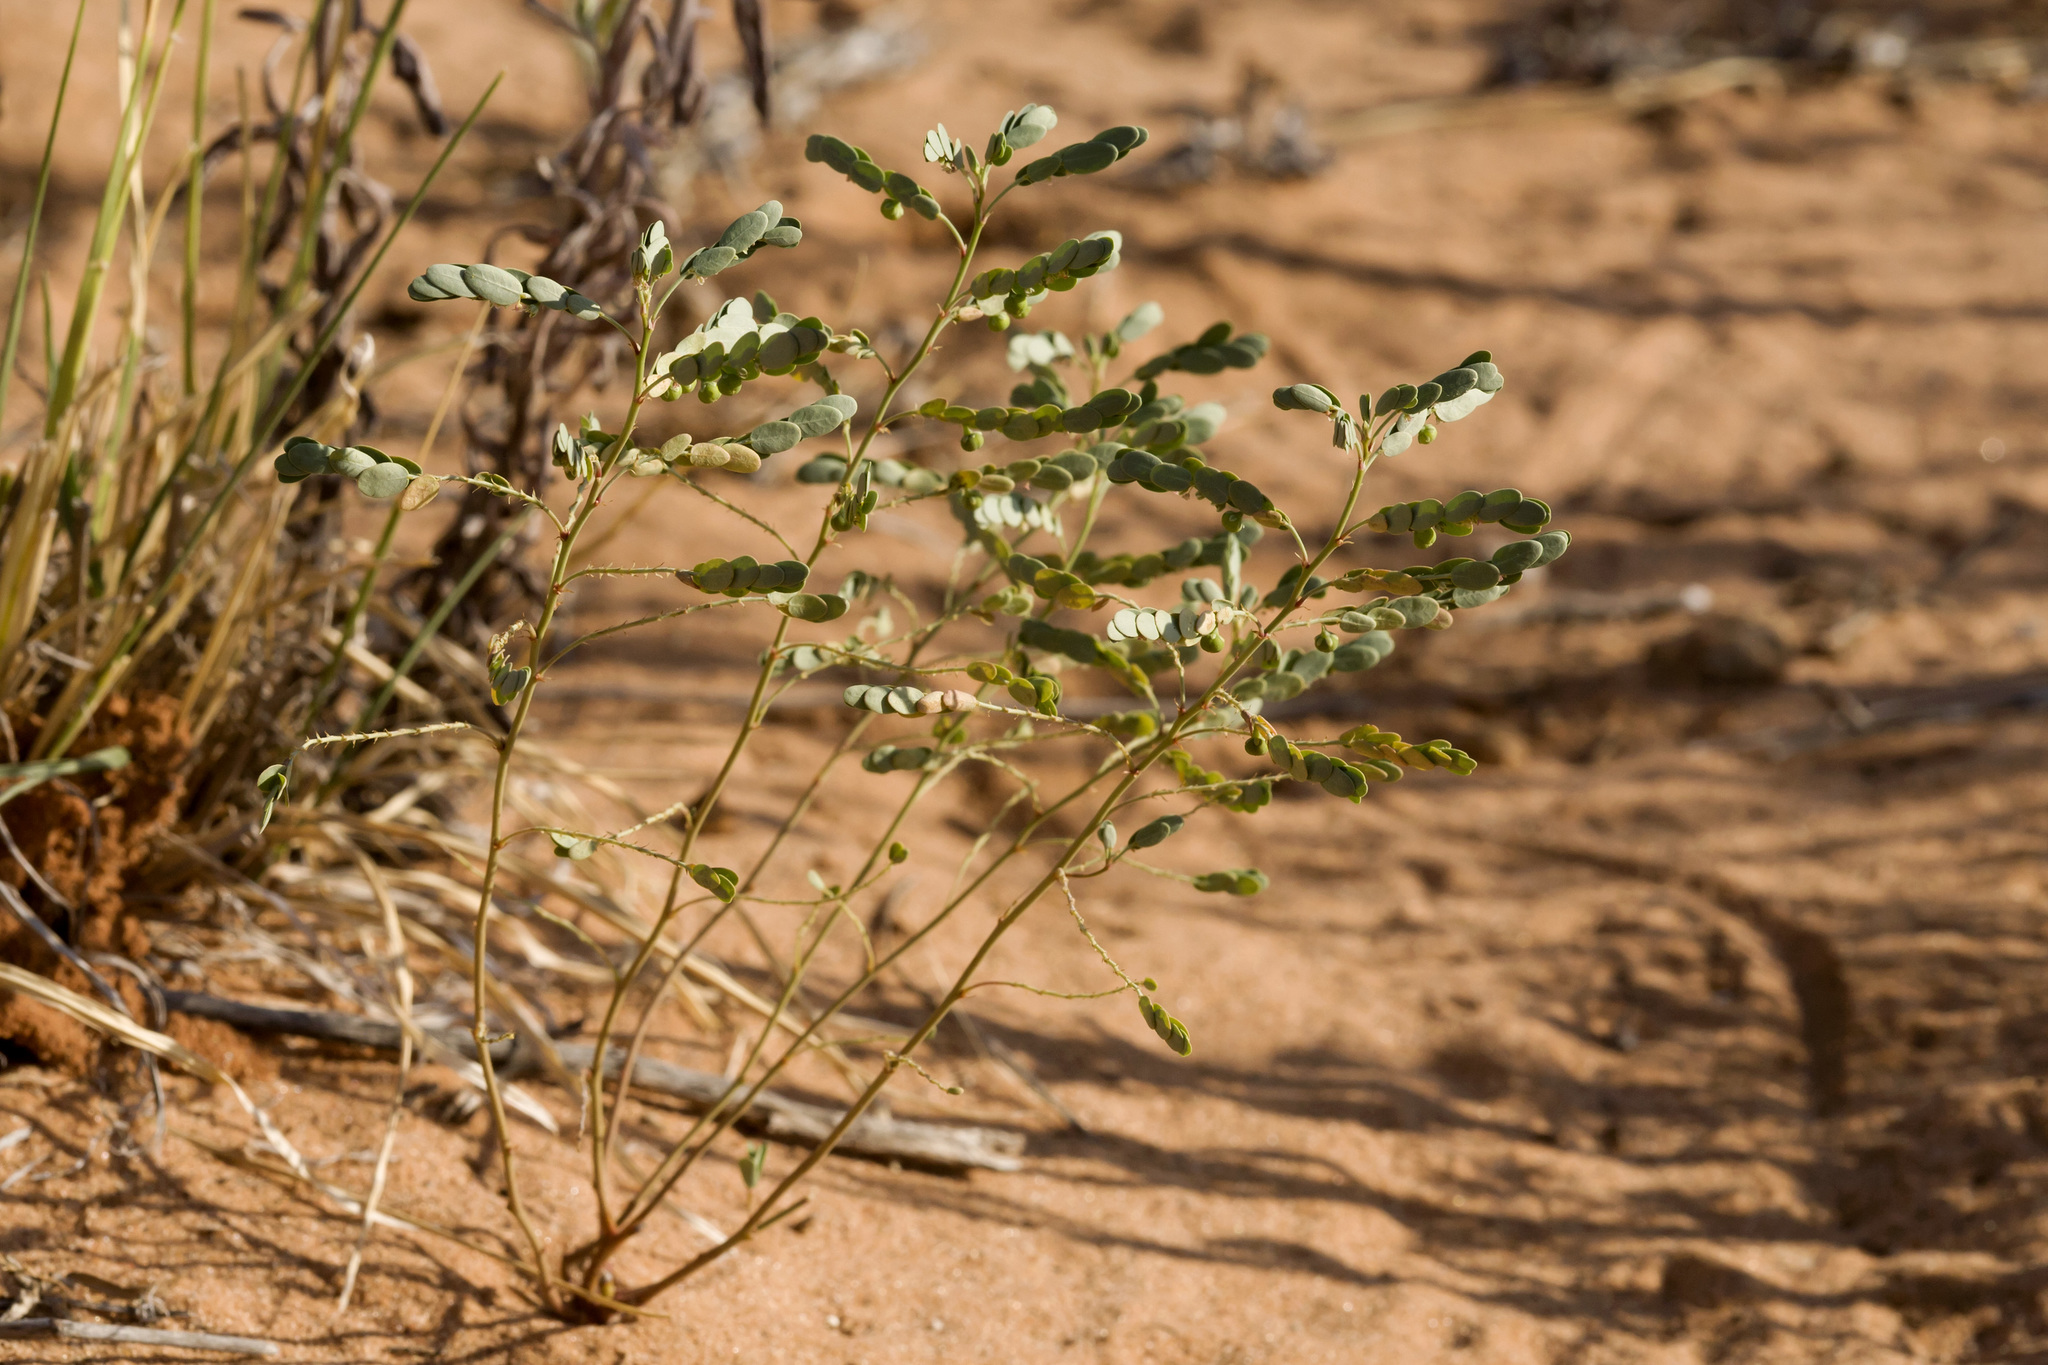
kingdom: Plantae
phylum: Tracheophyta
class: Magnoliopsida
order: Malpighiales
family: Phyllanthaceae
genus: Phyllanthus
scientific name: Phyllanthus abnormis
